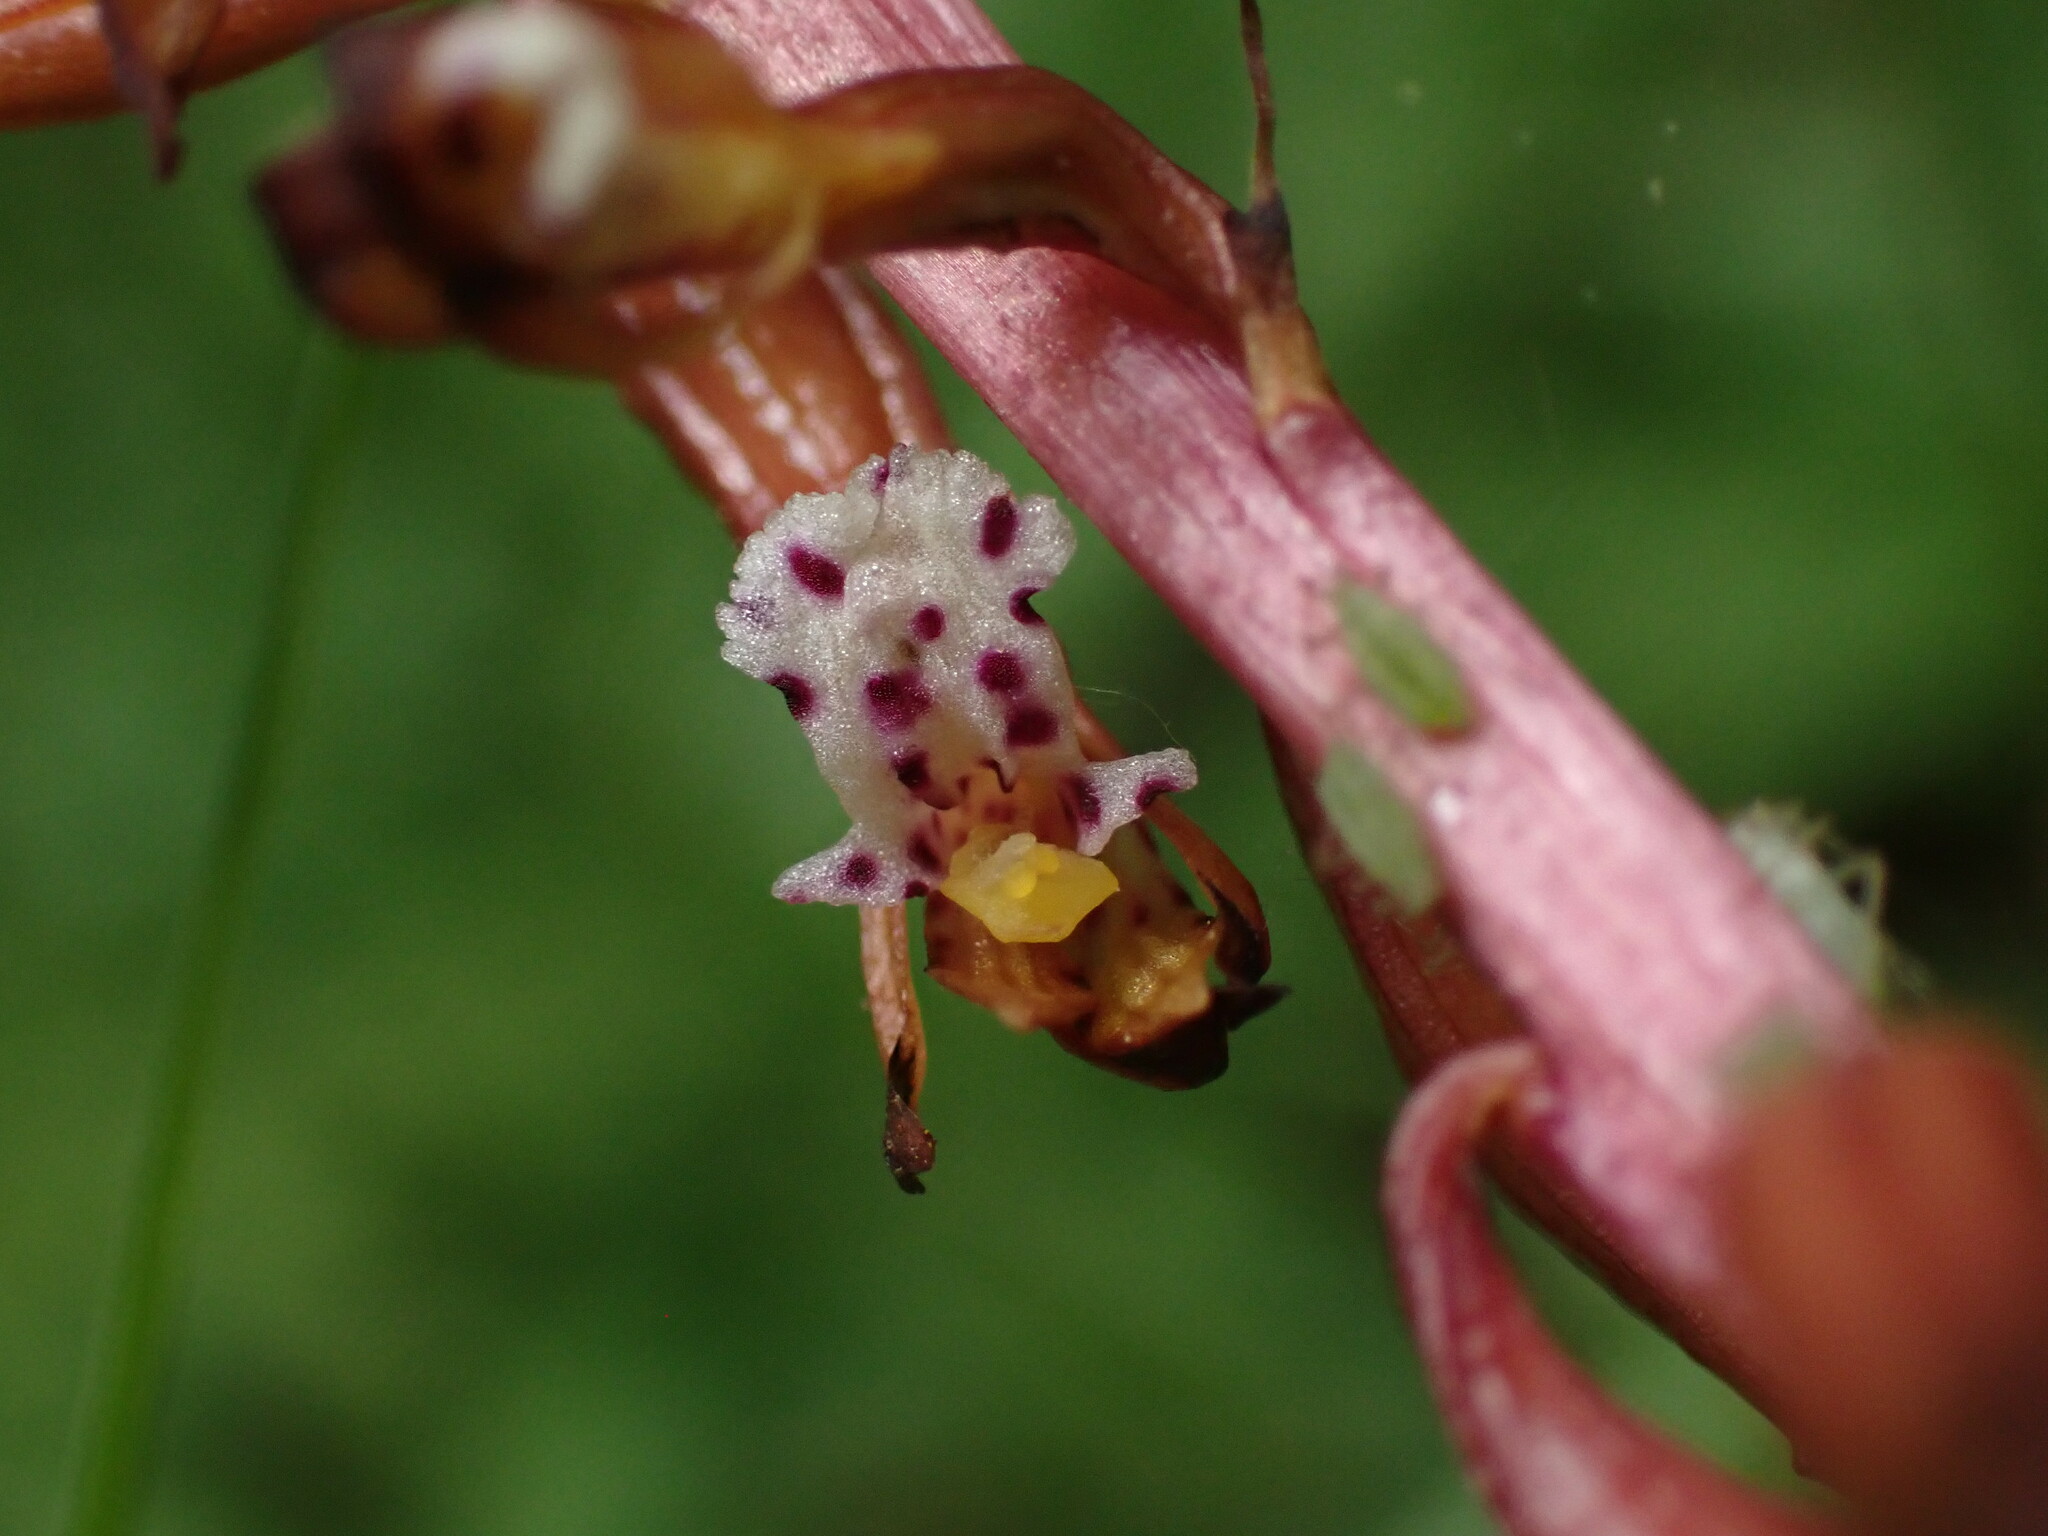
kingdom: Plantae
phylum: Tracheophyta
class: Liliopsida
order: Asparagales
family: Orchidaceae
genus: Corallorhiza
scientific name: Corallorhiza maculata
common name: Spotted coralroot
